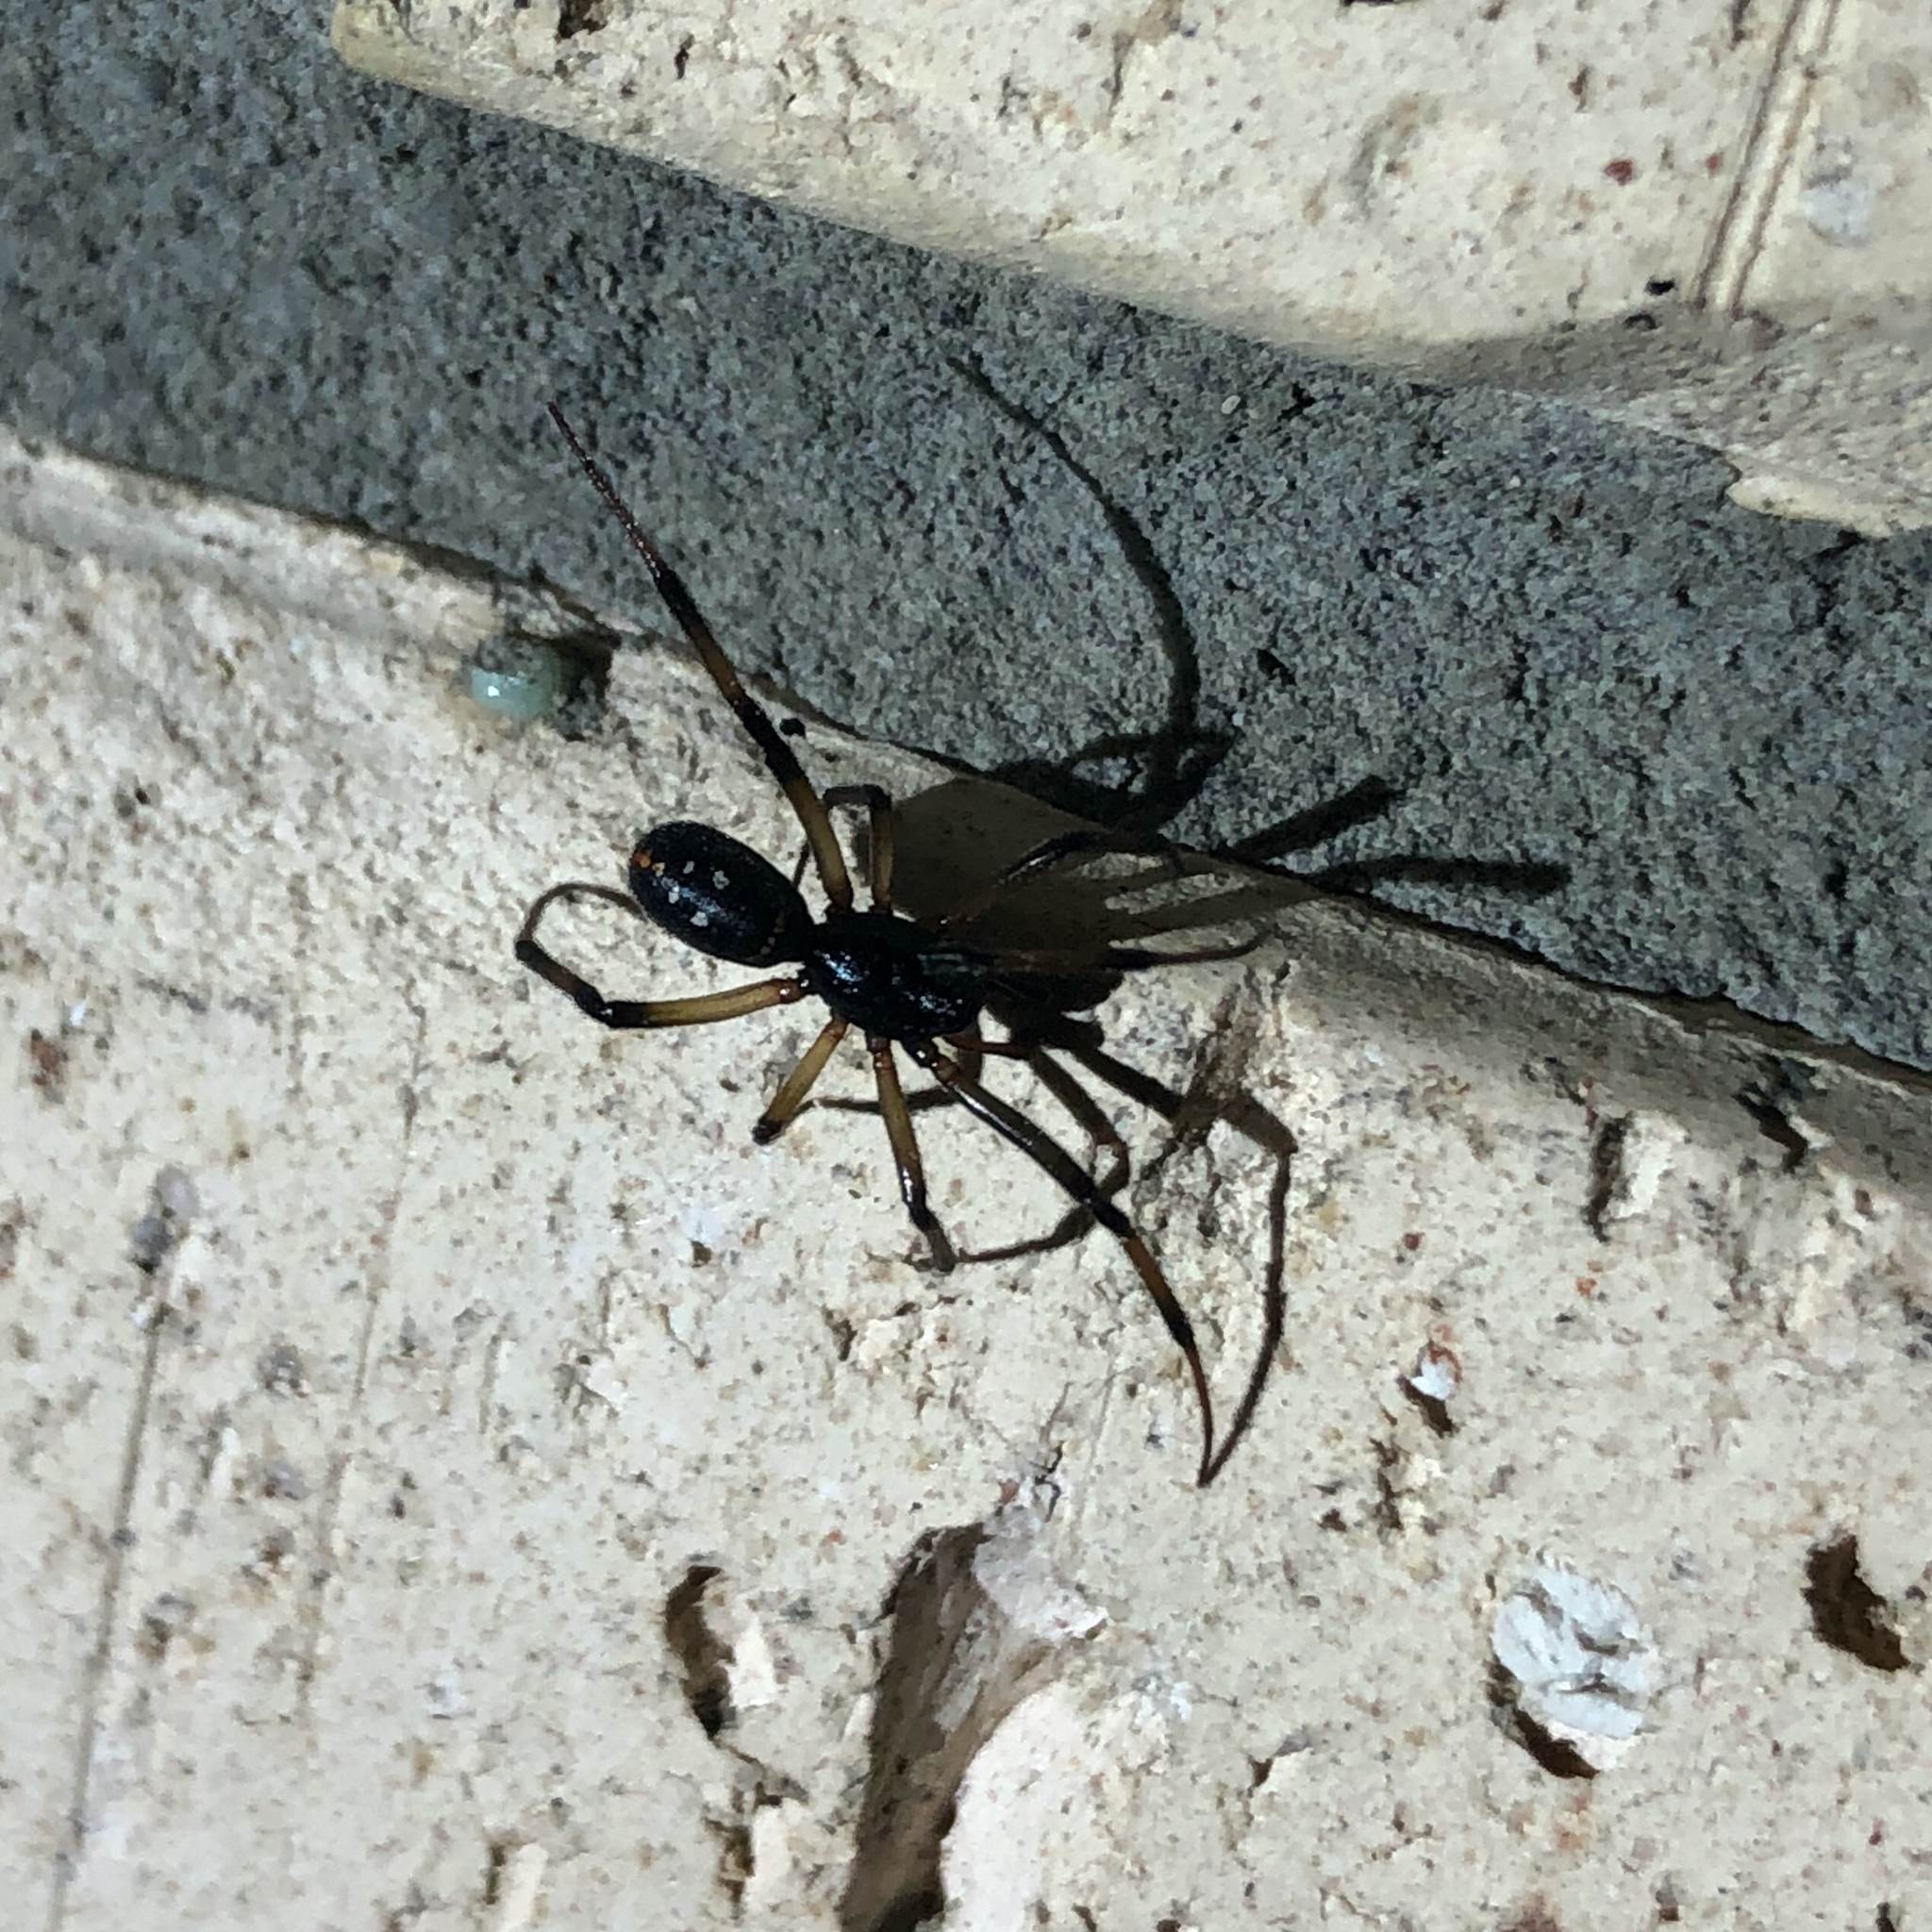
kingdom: Animalia
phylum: Arthropoda
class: Arachnida
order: Araneae
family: Theridiidae
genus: Steatoda
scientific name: Steatoda capensis
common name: Cobweb weaver
